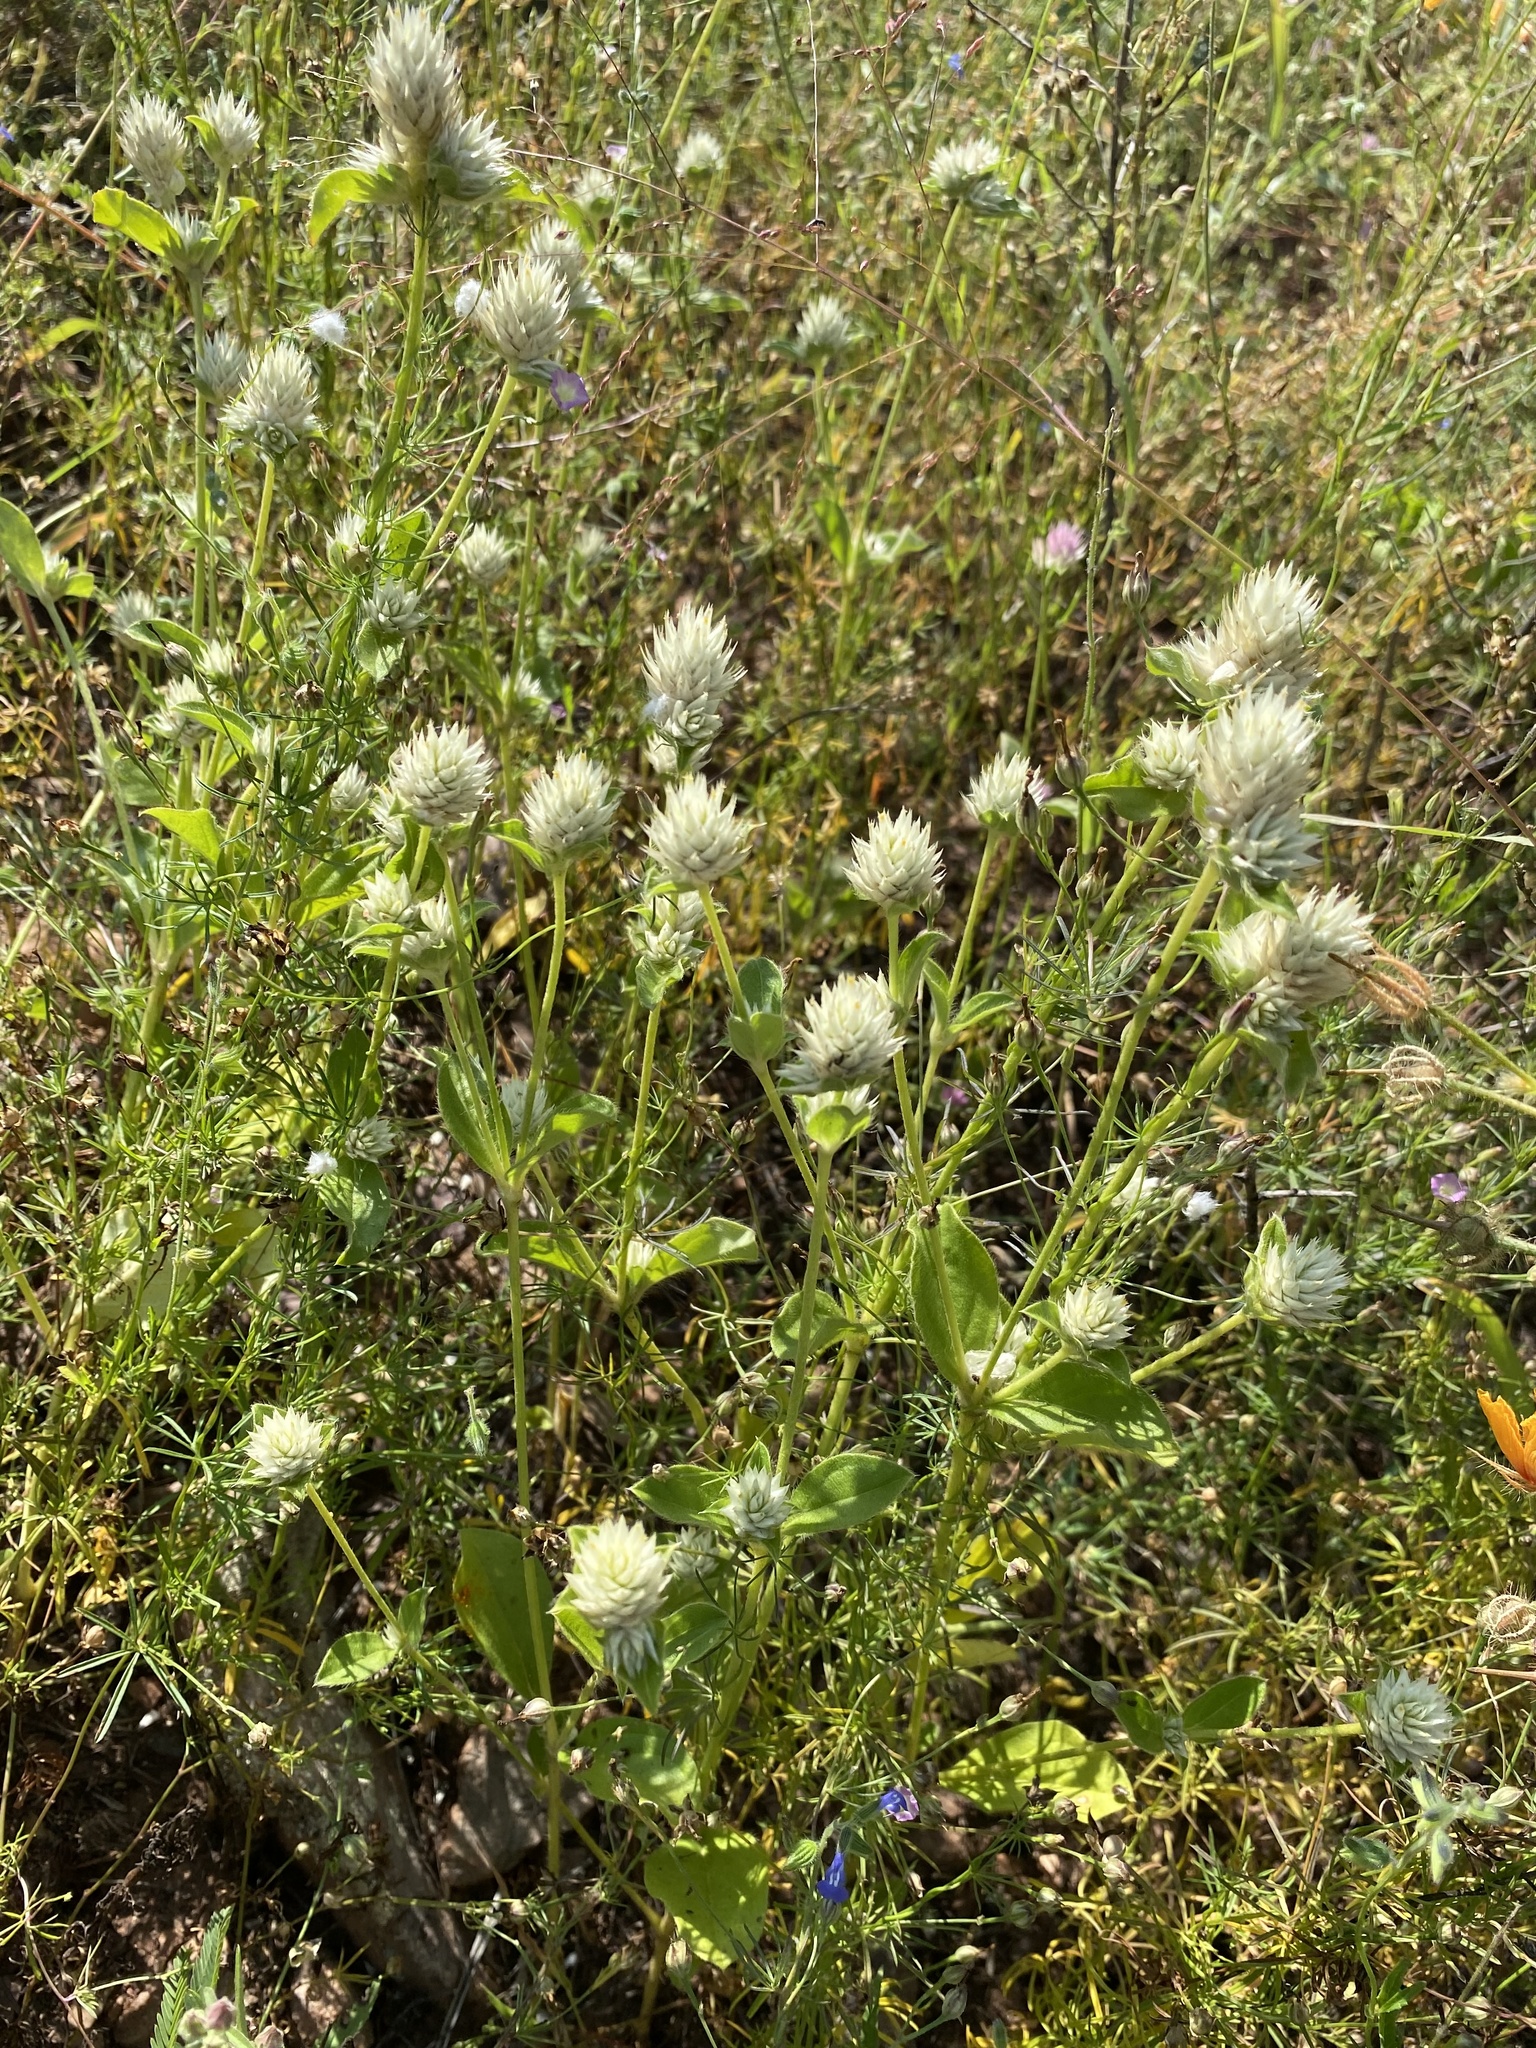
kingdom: Plantae
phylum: Tracheophyta
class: Magnoliopsida
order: Caryophyllales
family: Amaranthaceae
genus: Gomphrena
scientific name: Gomphrena nitida
